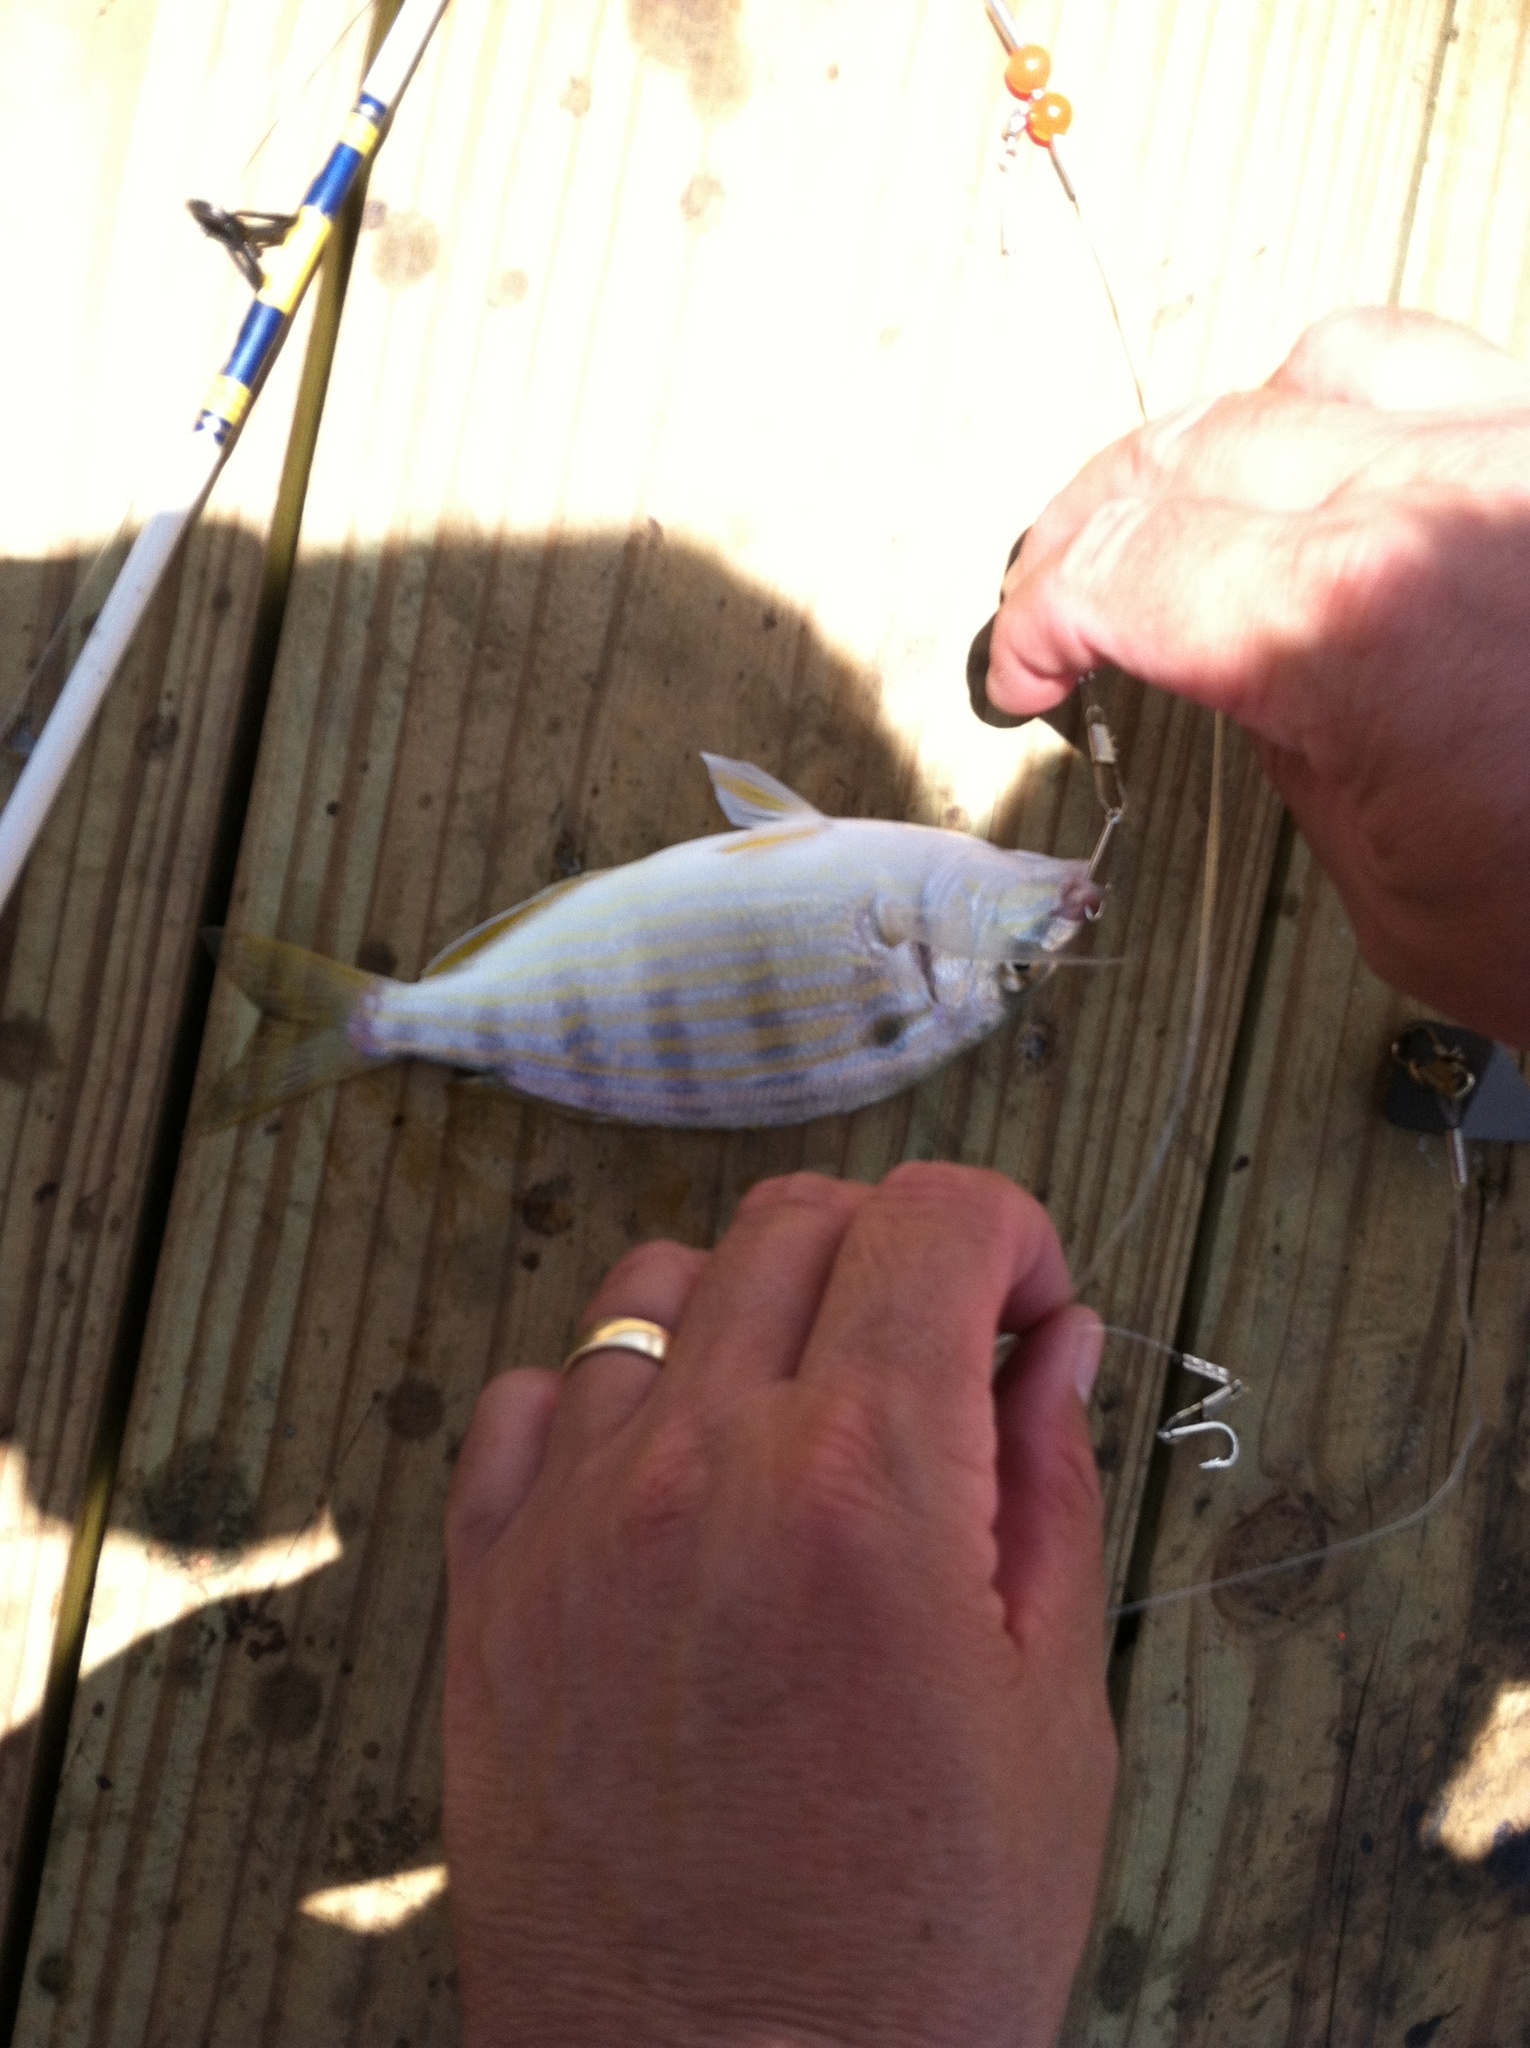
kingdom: Animalia
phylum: Chordata
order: Perciformes
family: Sparidae
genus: Lagodon
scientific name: Lagodon rhomboides
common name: Pinfish
